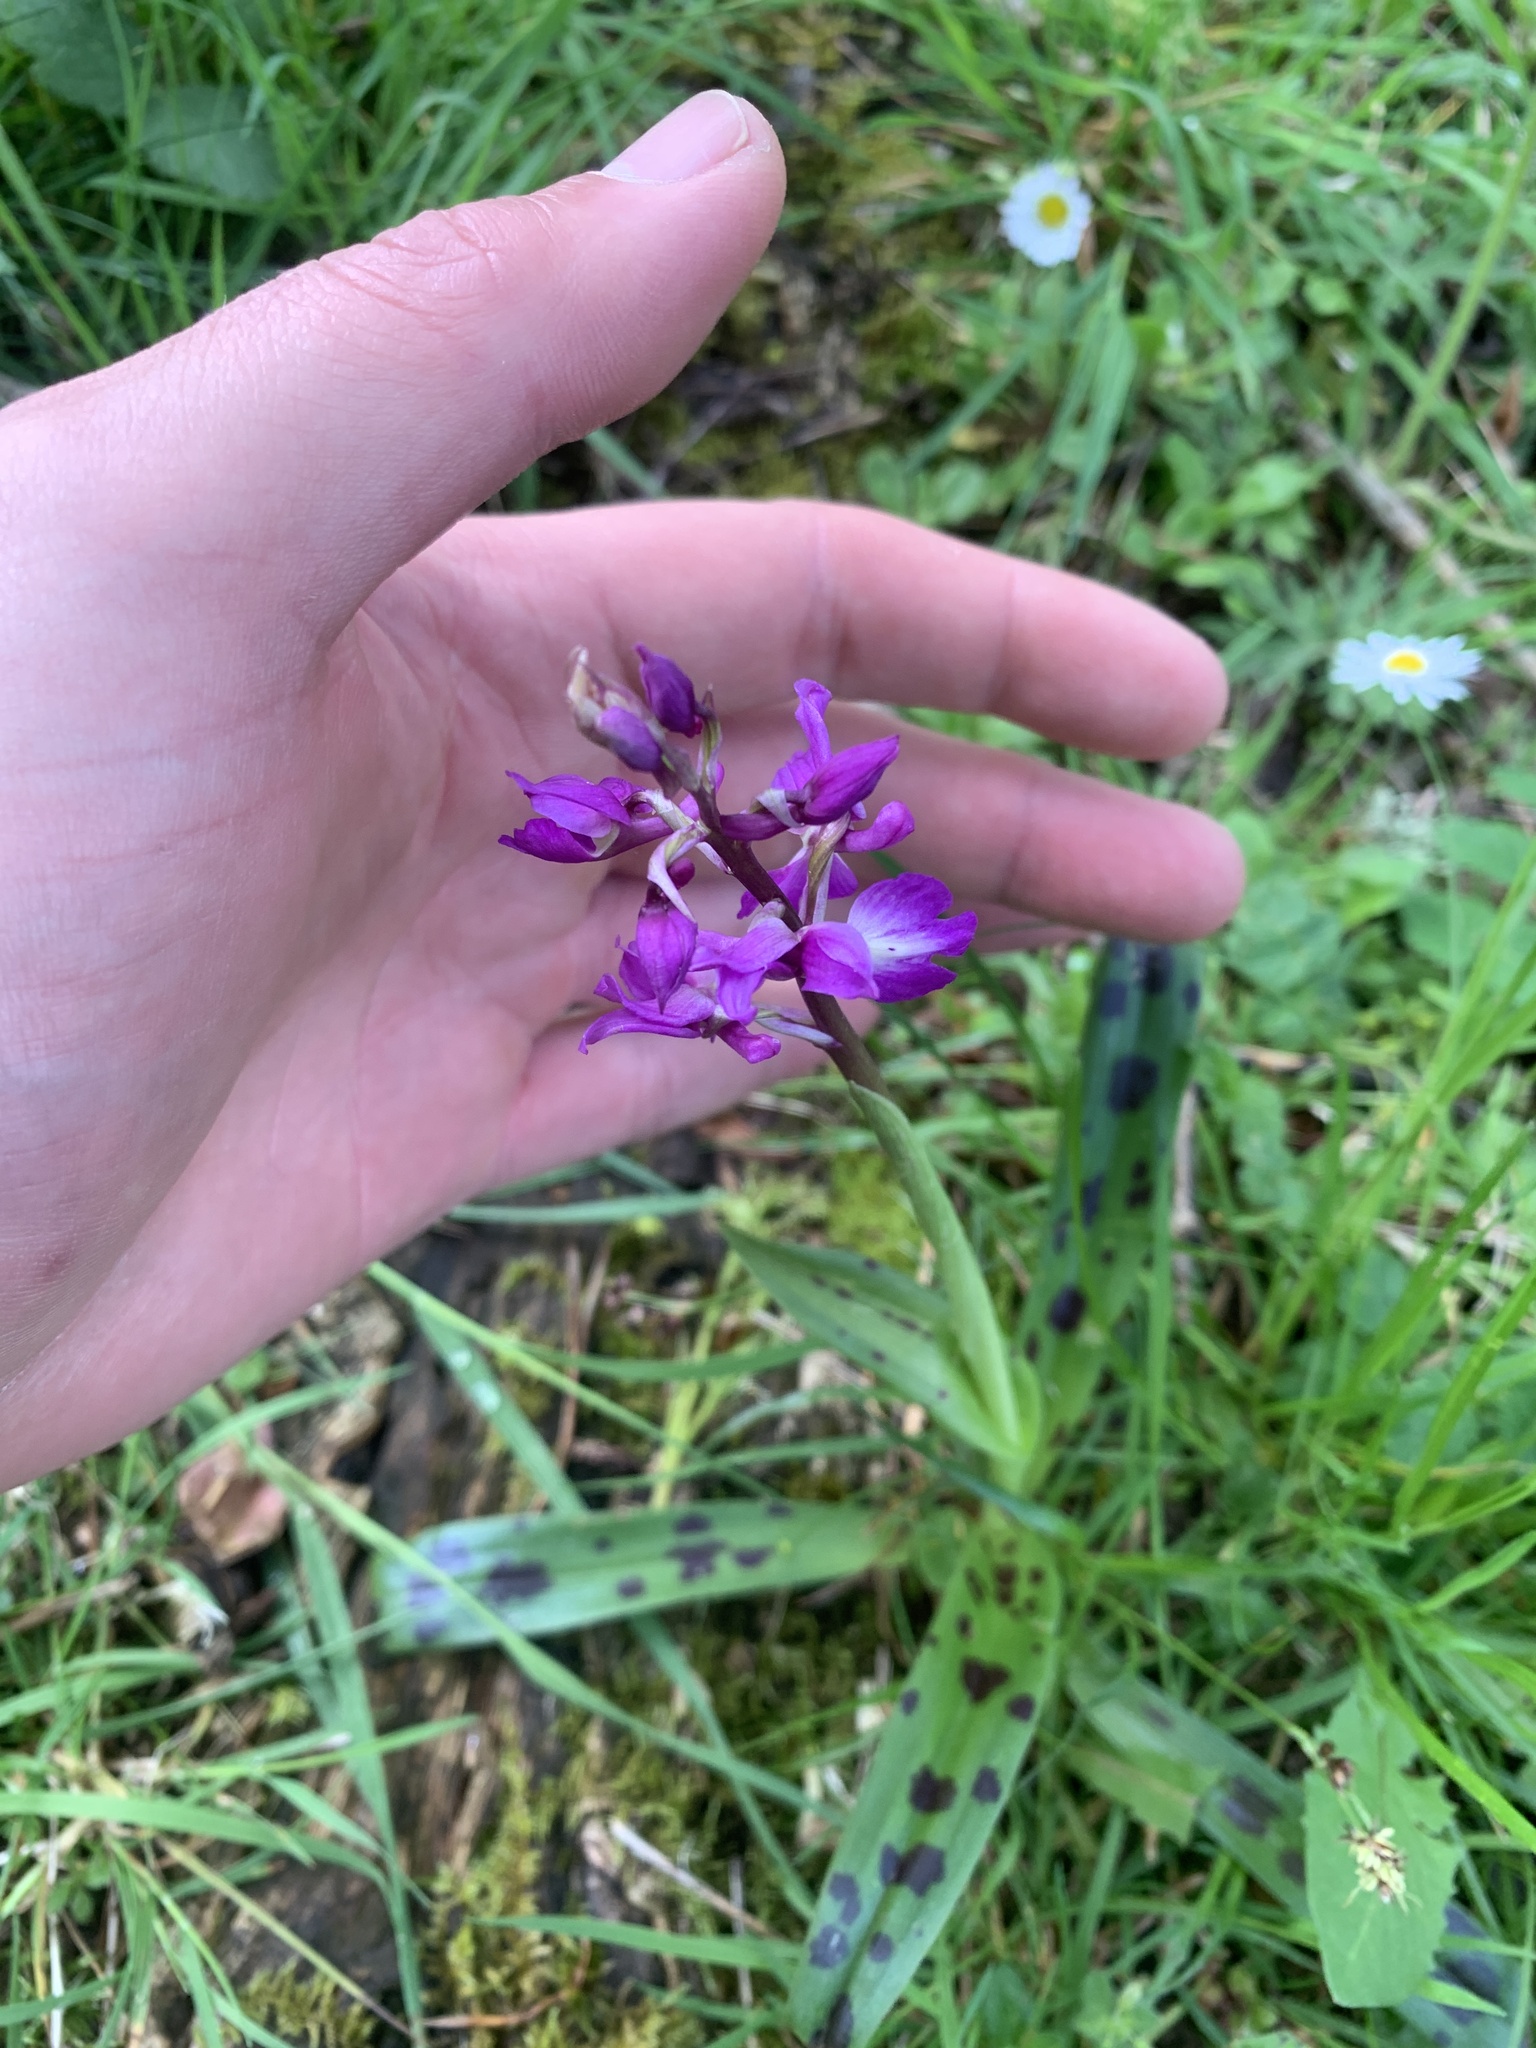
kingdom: Plantae
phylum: Tracheophyta
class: Liliopsida
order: Asparagales
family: Orchidaceae
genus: Orchis
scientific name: Orchis mascula
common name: Early-purple orchid
